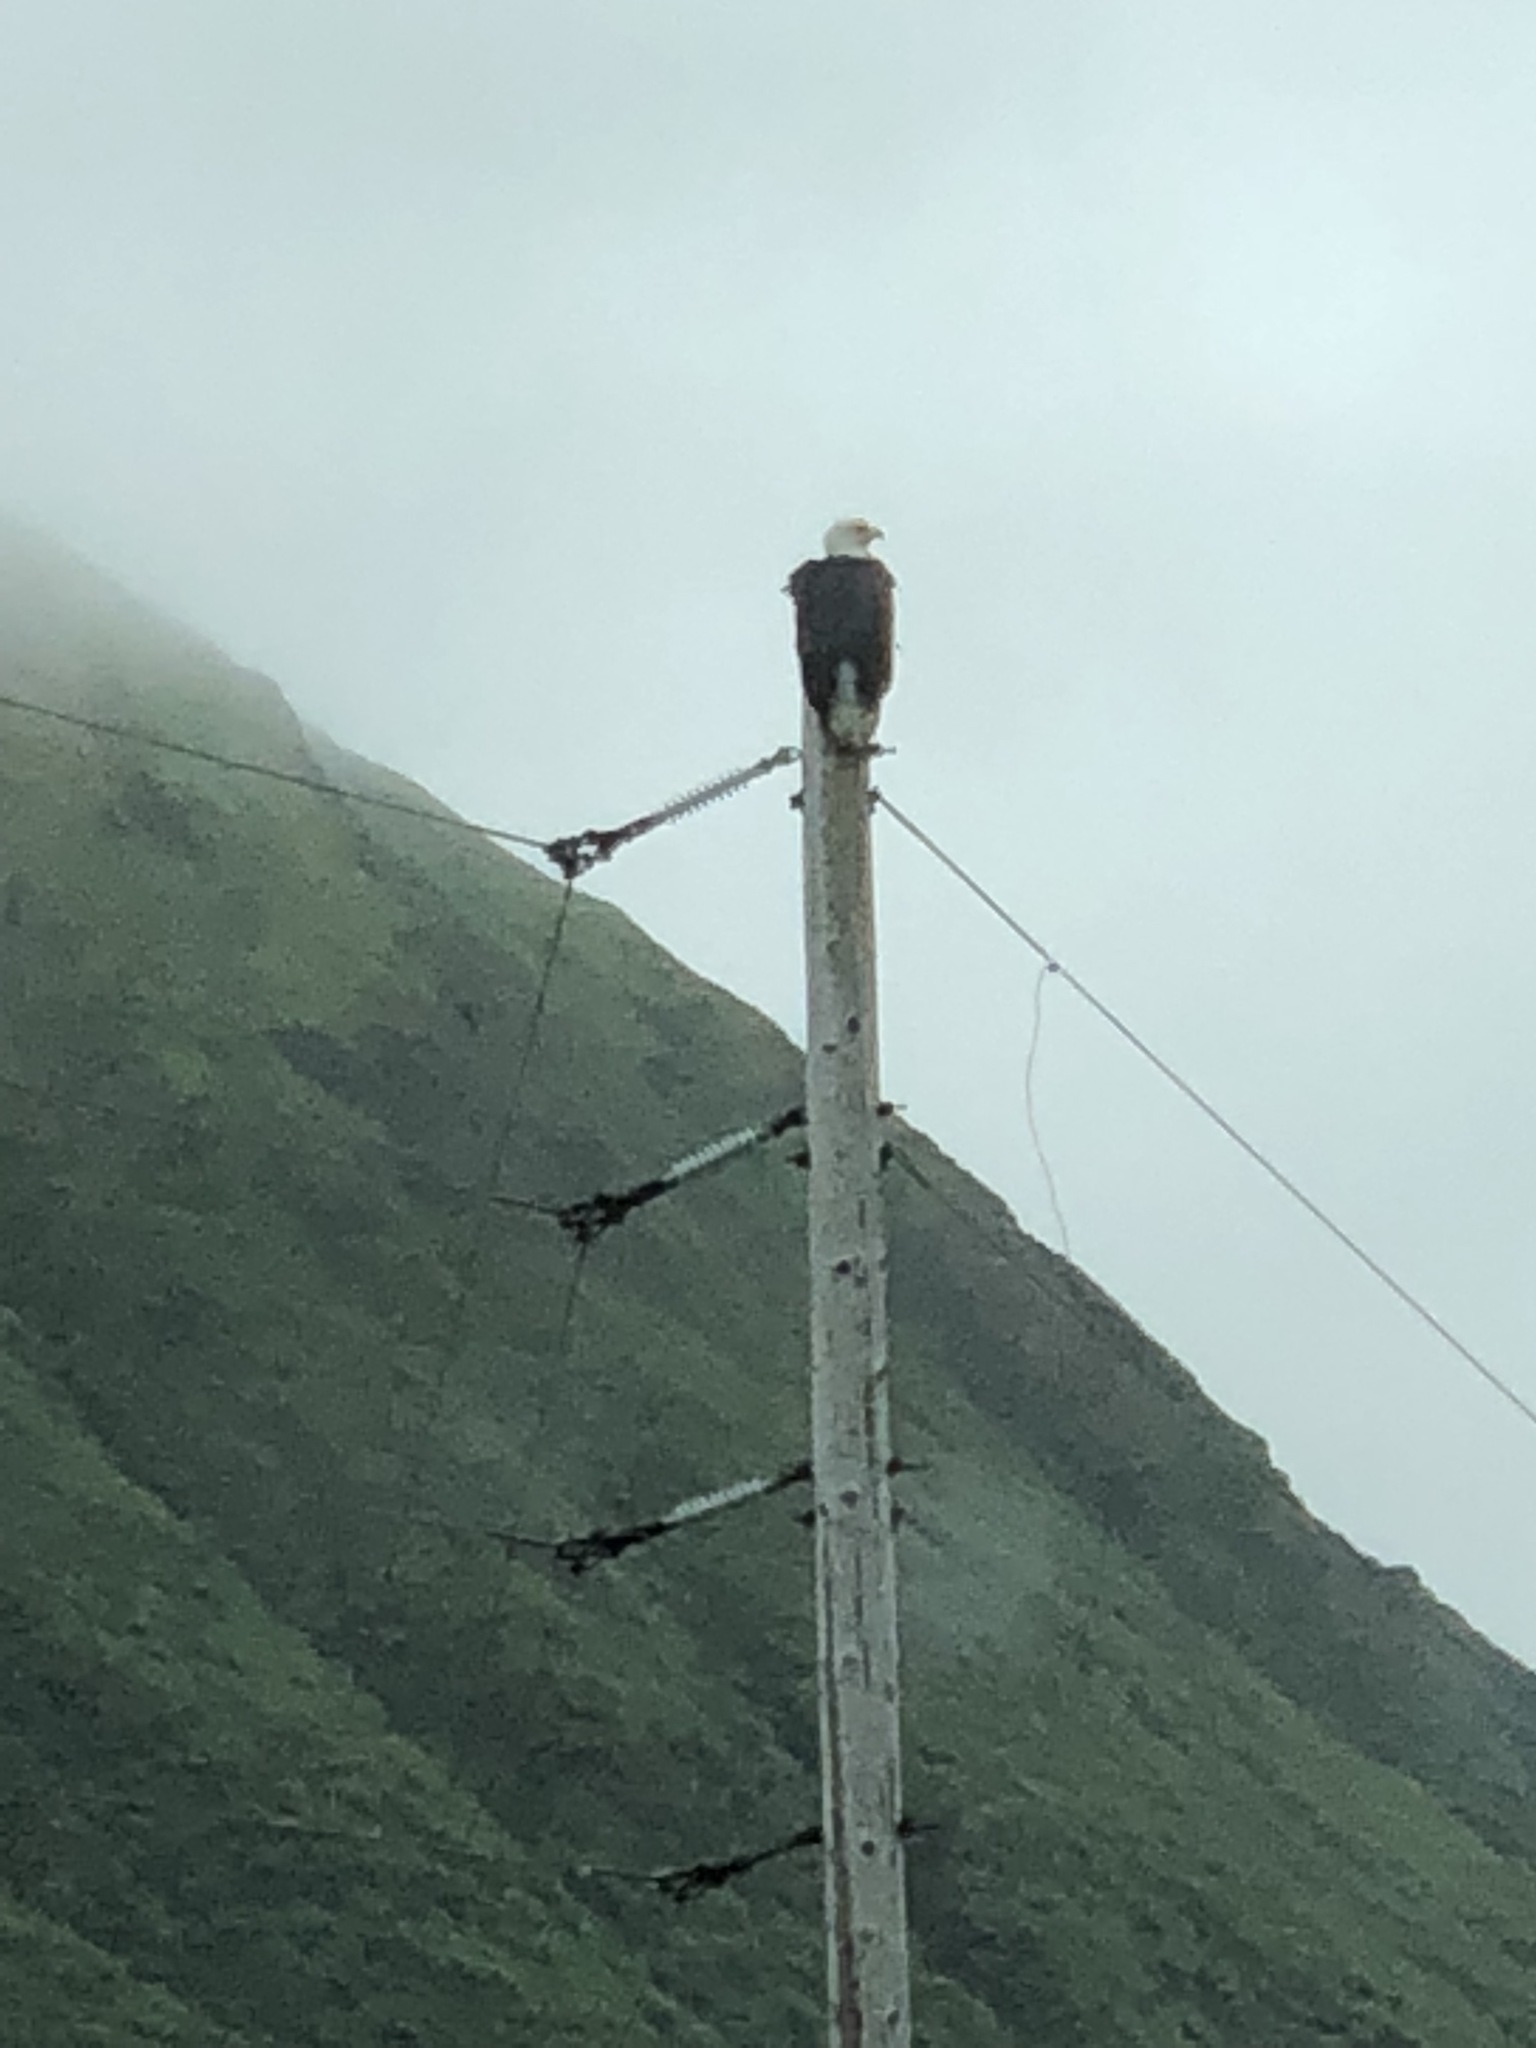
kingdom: Animalia
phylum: Chordata
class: Aves
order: Accipitriformes
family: Accipitridae
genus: Haliaeetus
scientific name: Haliaeetus leucocephalus
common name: Bald eagle
